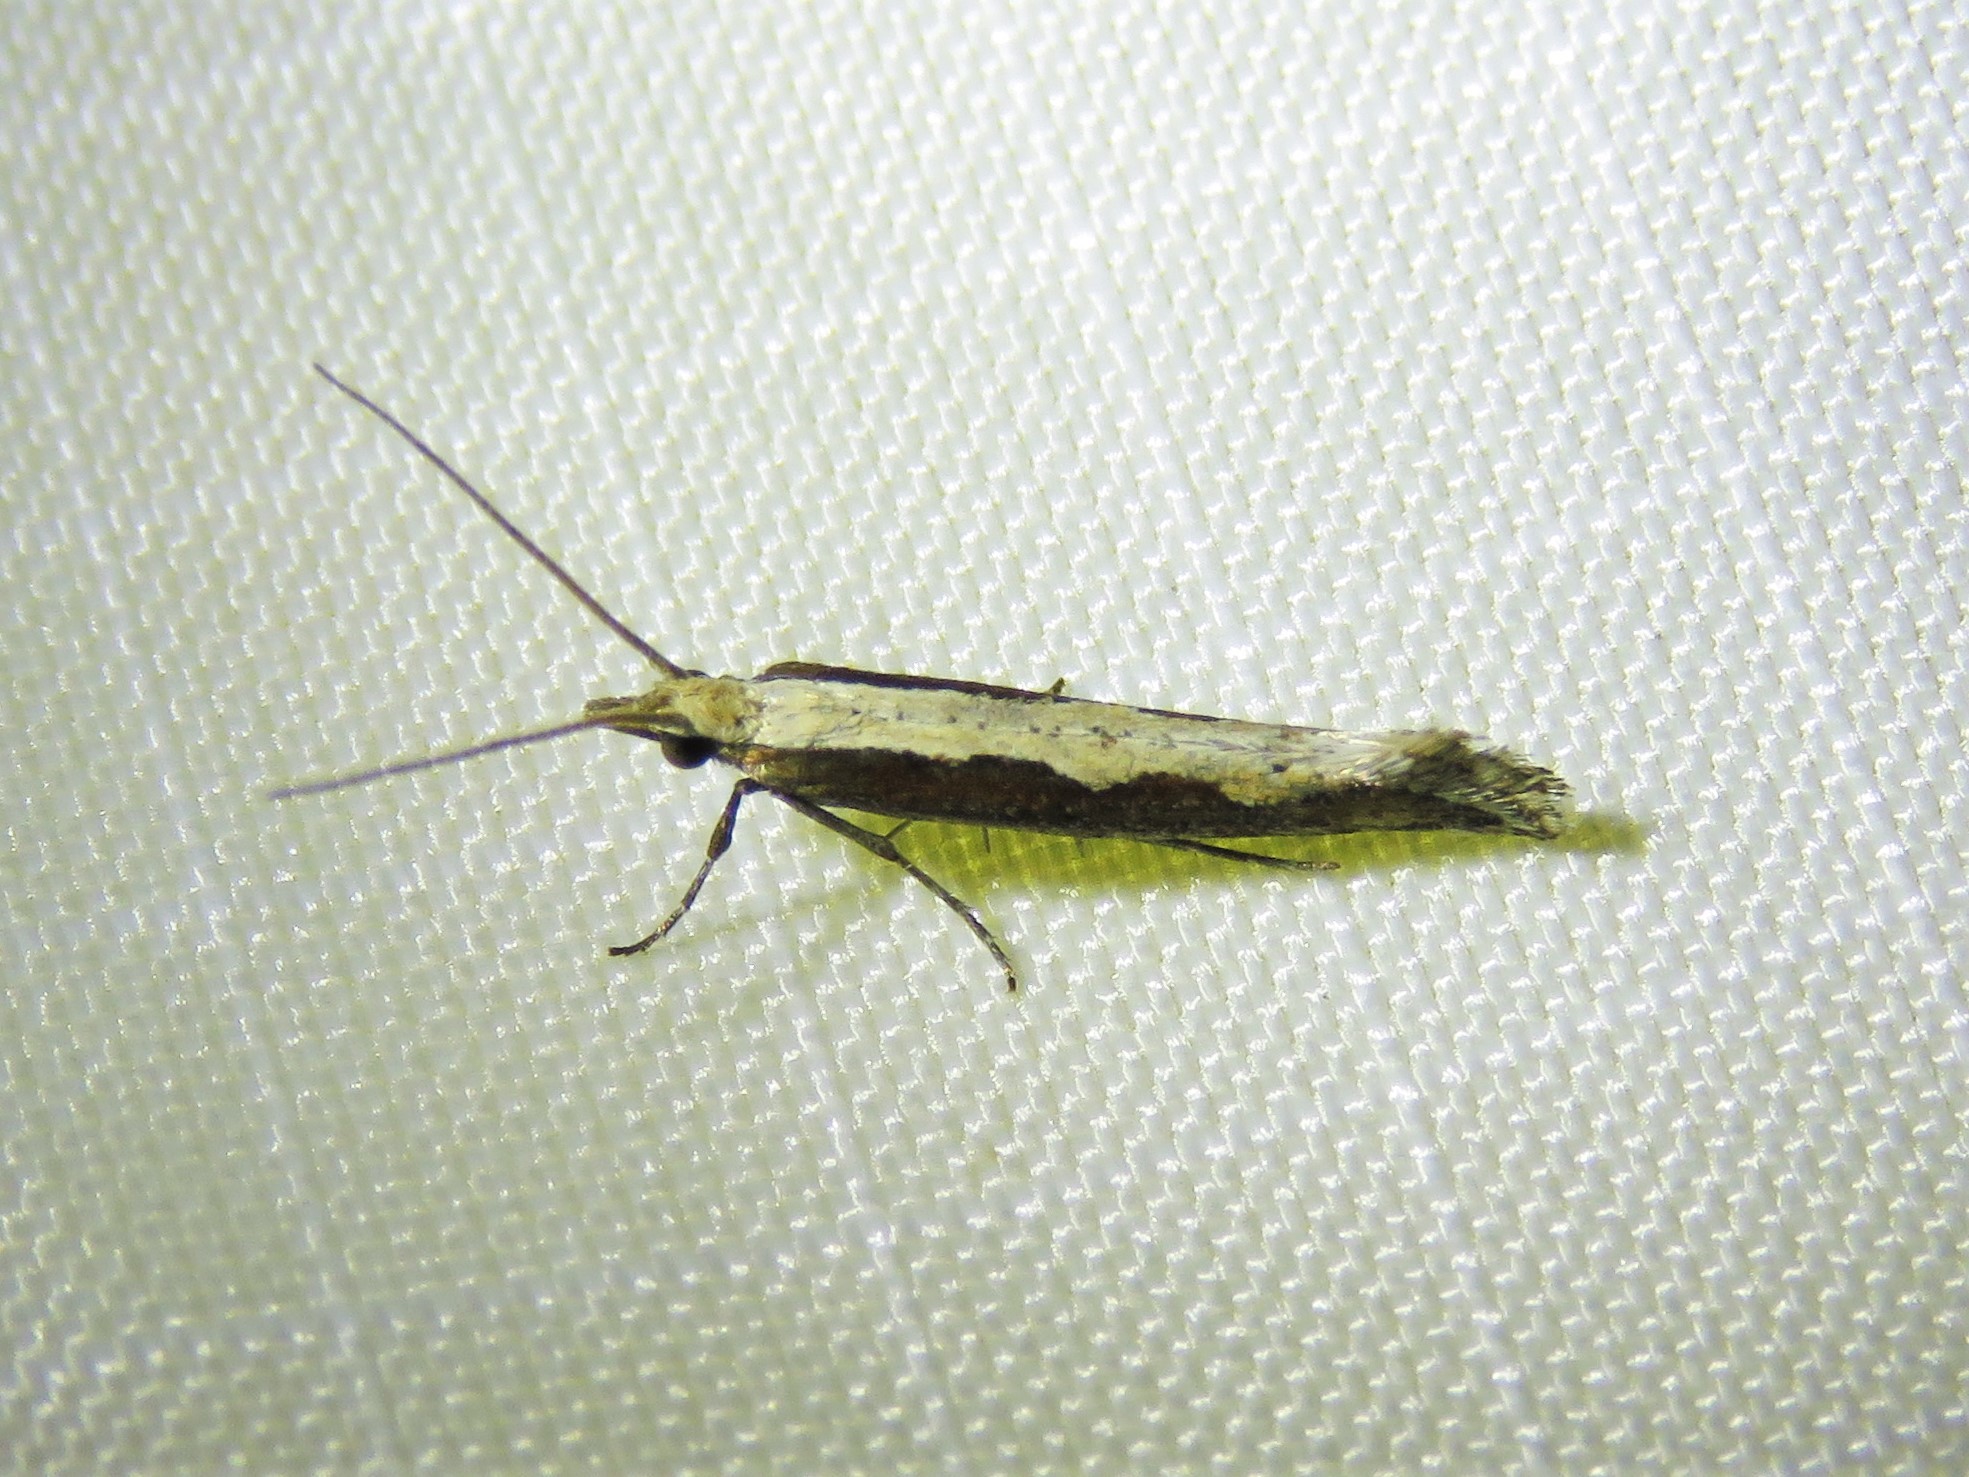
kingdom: Animalia
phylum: Arthropoda
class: Insecta
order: Lepidoptera
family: Plutellidae
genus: Plutella
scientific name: Plutella xylostella
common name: Diamond-back moth
